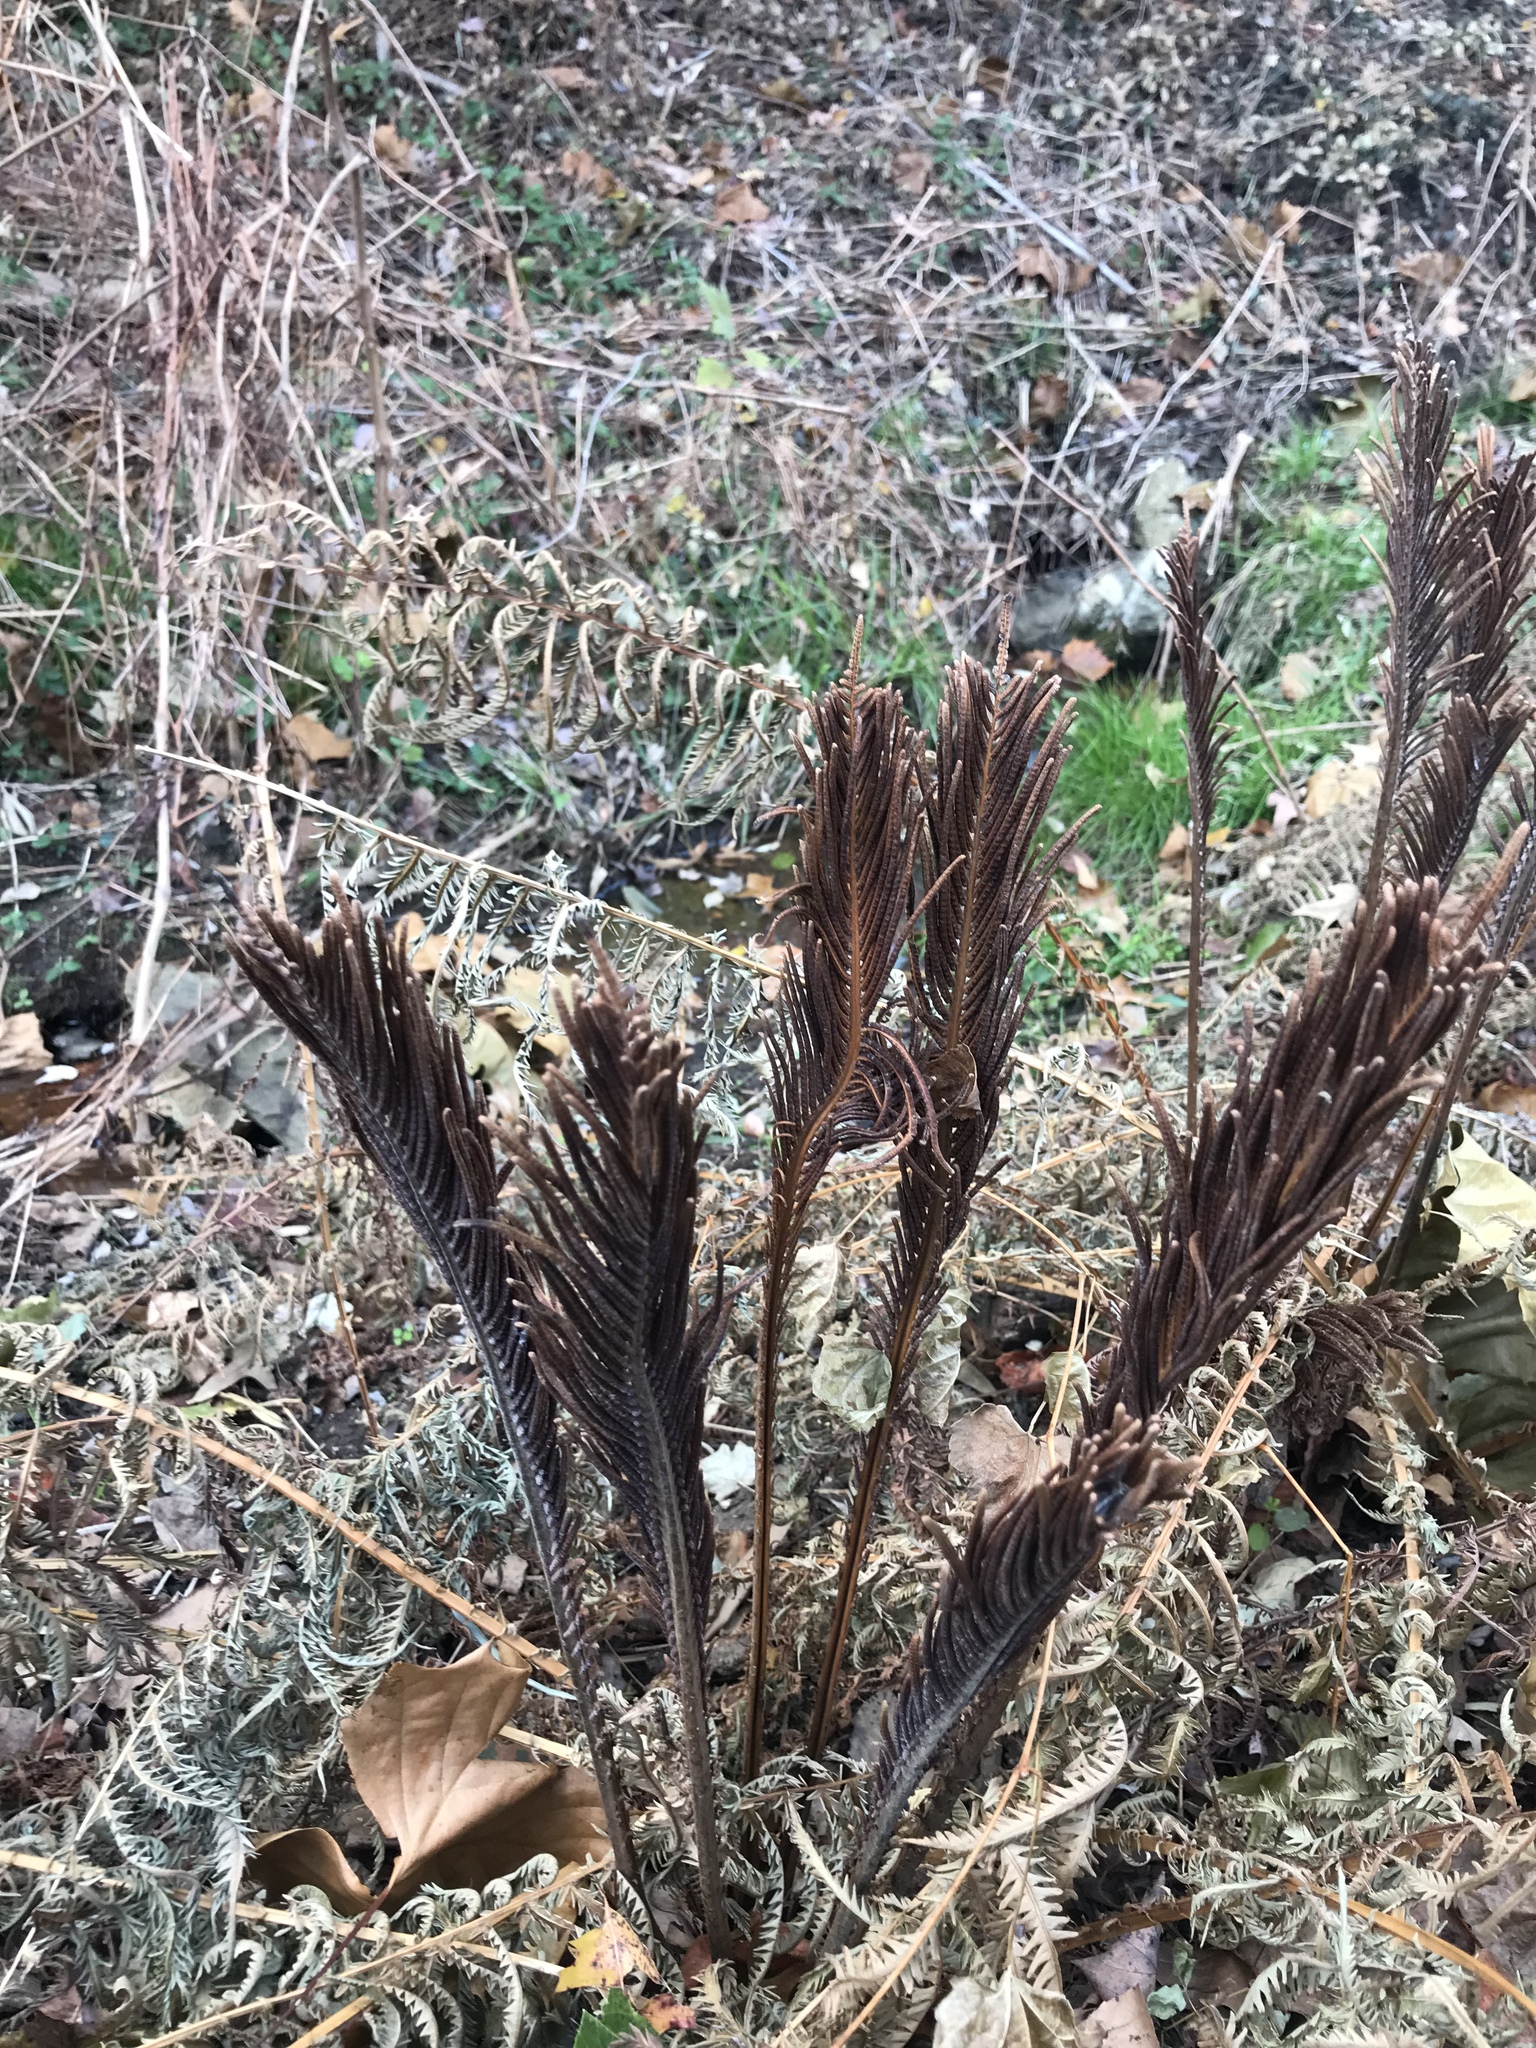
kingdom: Plantae
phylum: Tracheophyta
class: Polypodiopsida
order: Polypodiales
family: Onocleaceae
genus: Matteuccia
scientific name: Matteuccia struthiopteris
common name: Ostrich fern
